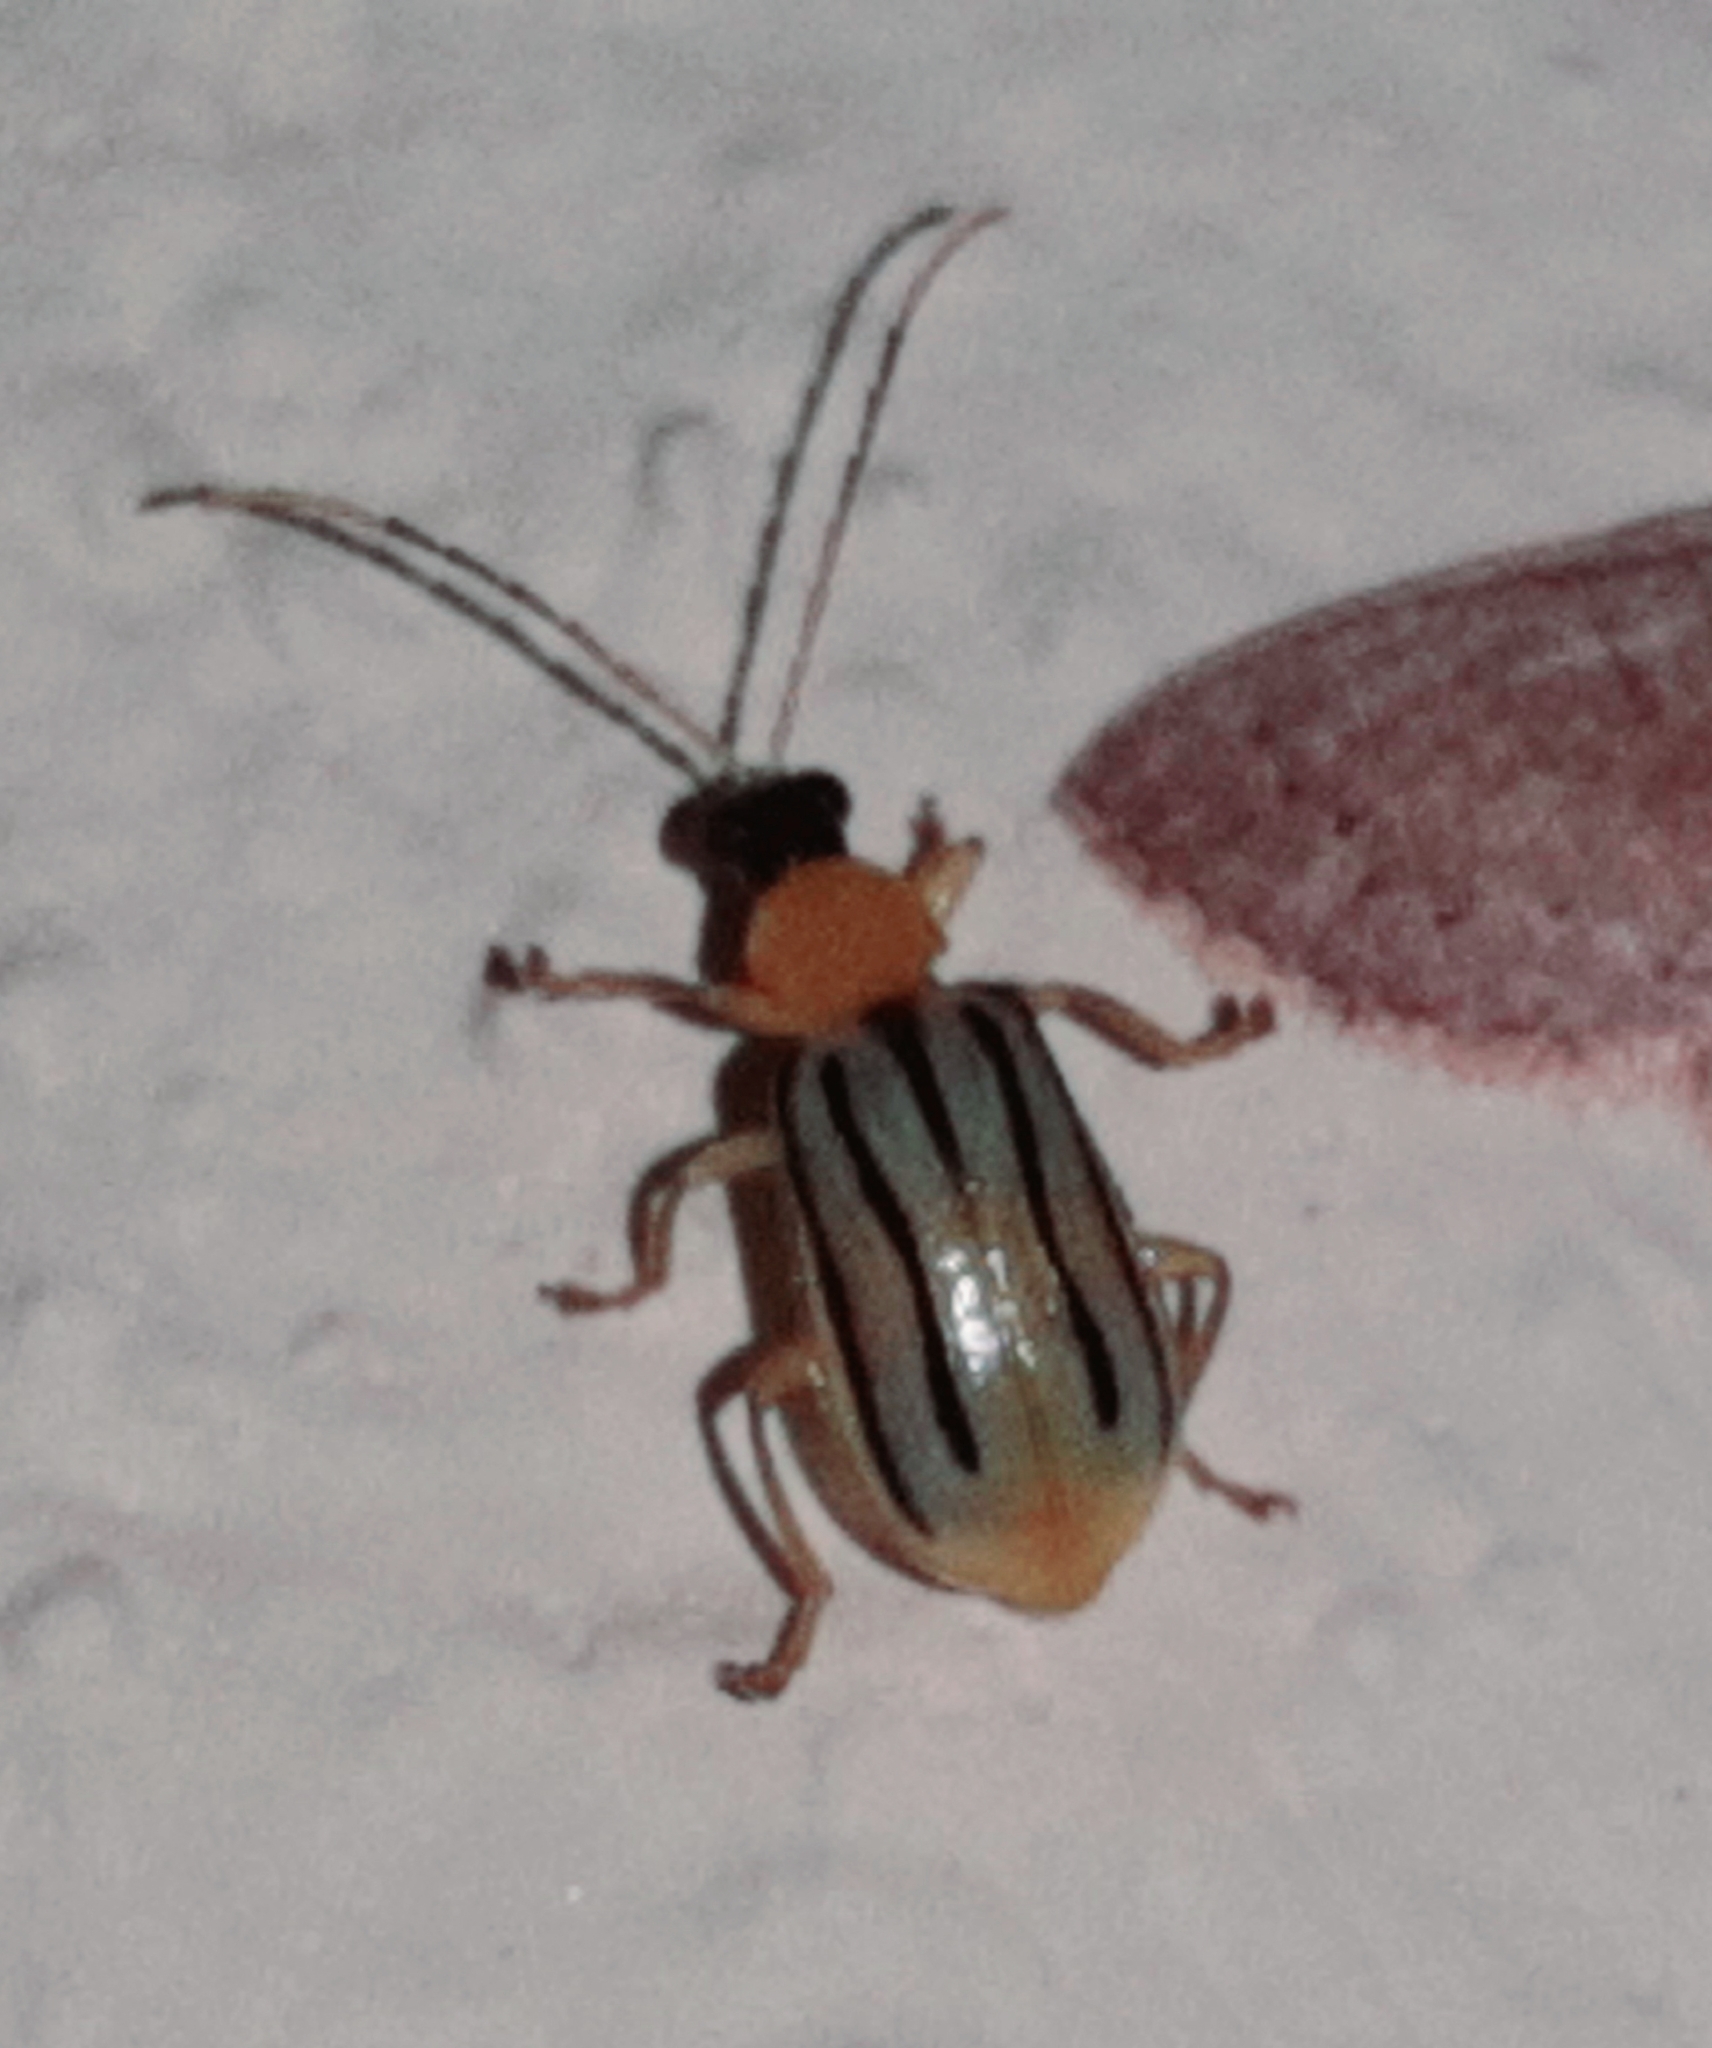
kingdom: Animalia
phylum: Arthropoda
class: Insecta
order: Coleoptera
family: Chrysomelidae
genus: Diabrotica
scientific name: Diabrotica
